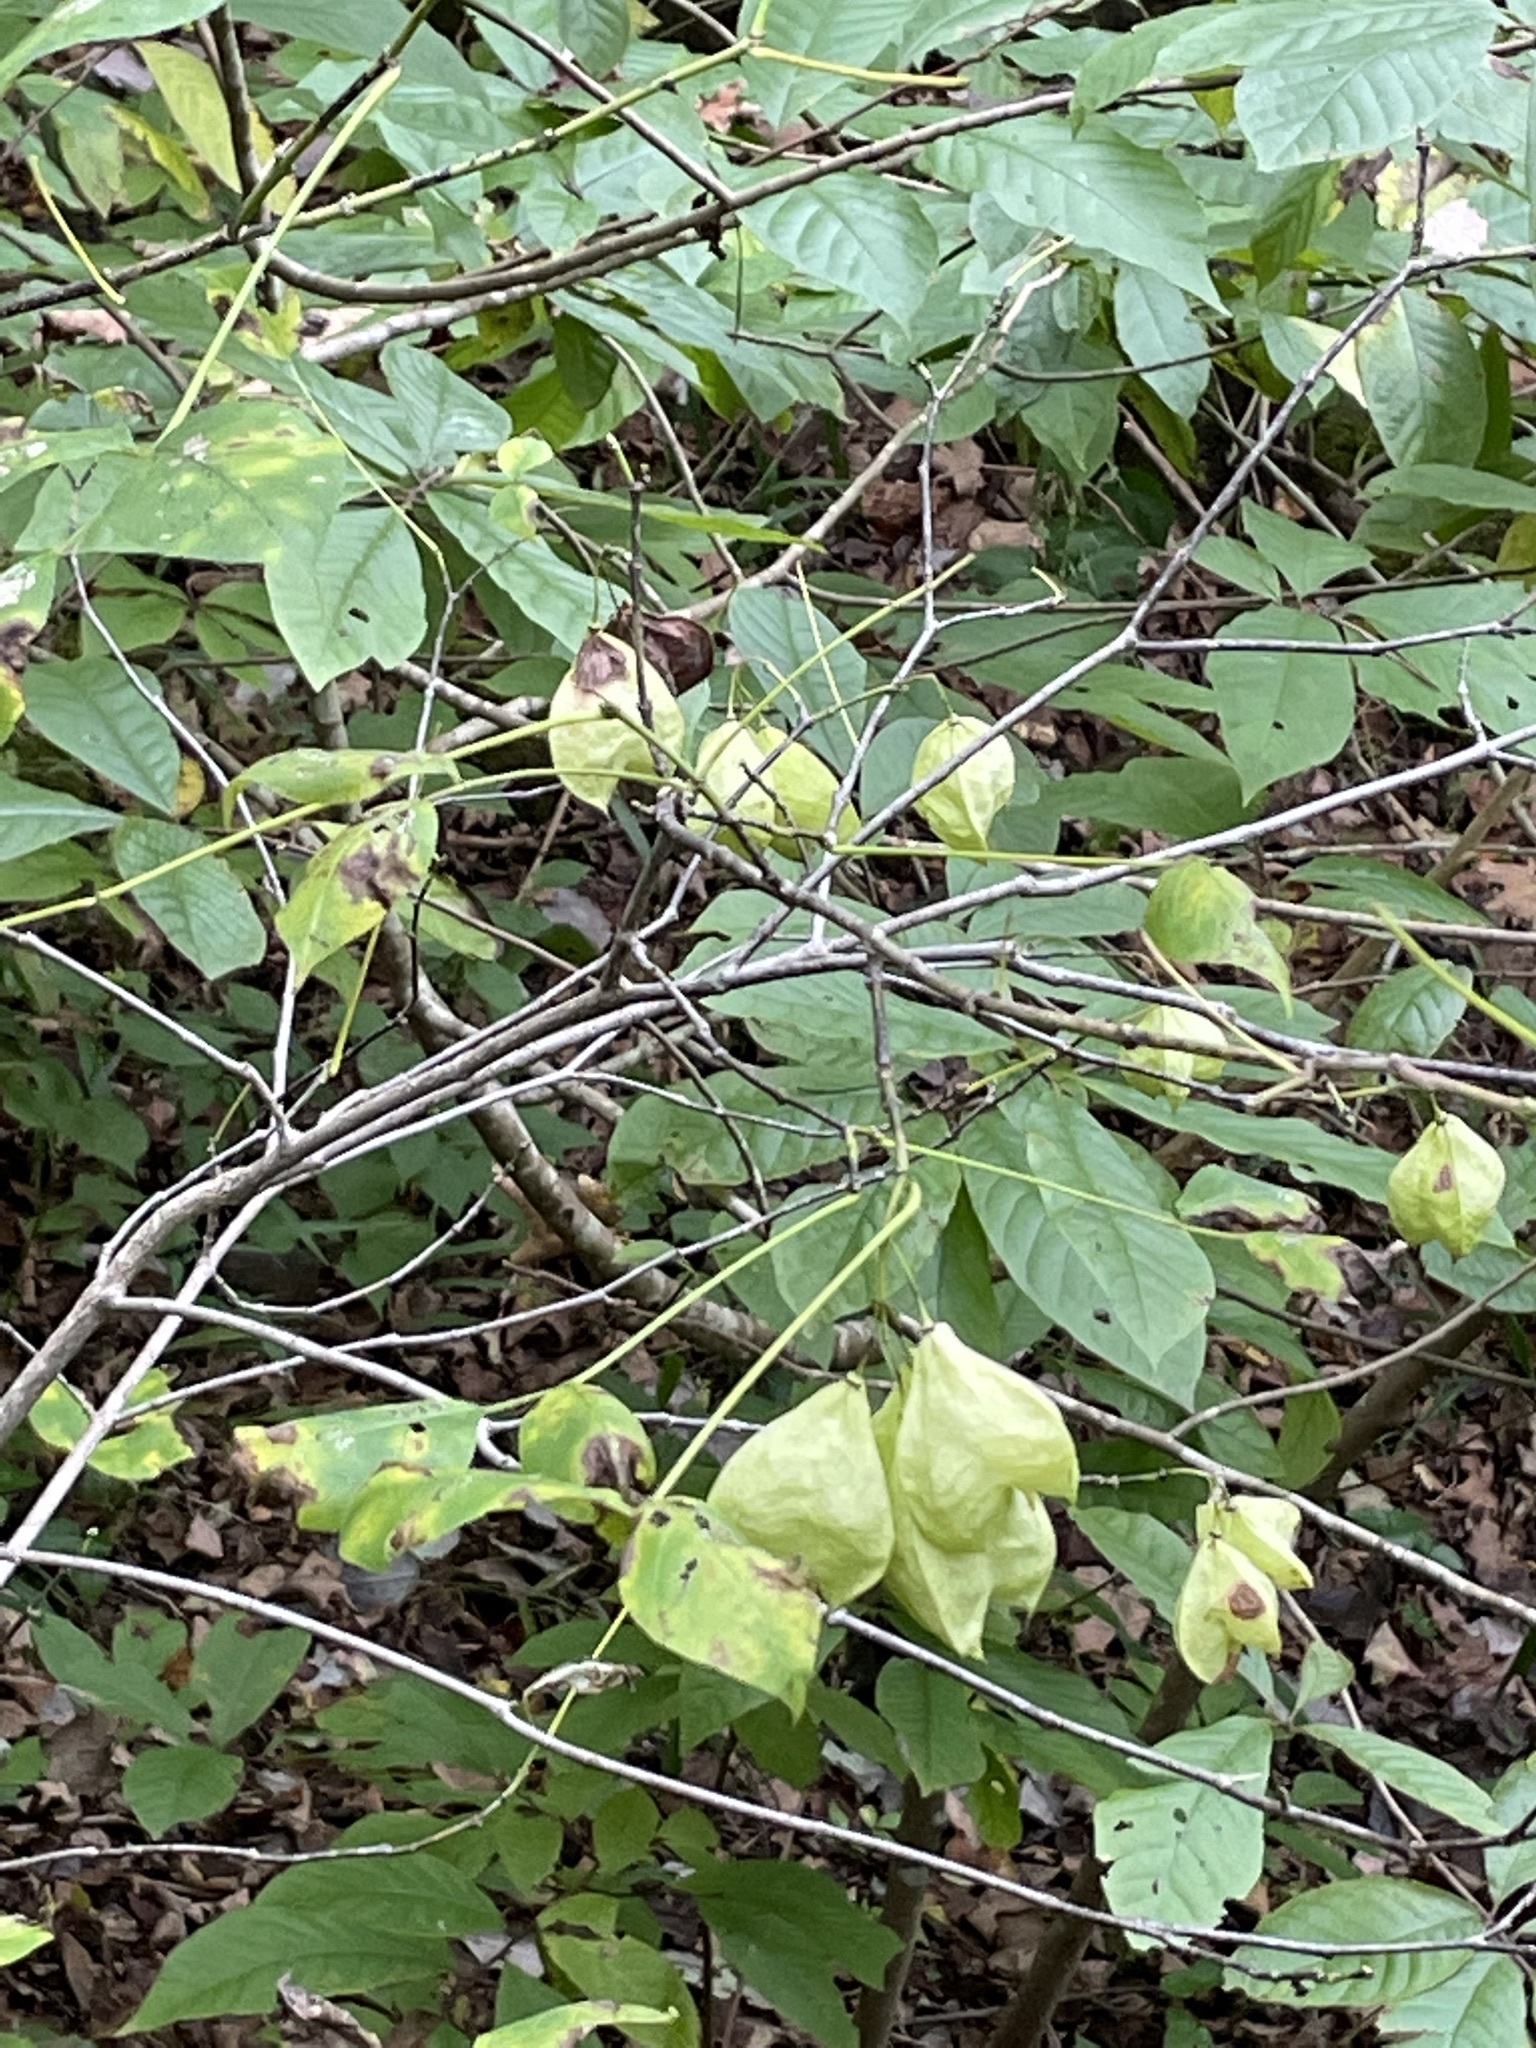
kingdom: Plantae
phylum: Tracheophyta
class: Magnoliopsida
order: Crossosomatales
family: Staphyleaceae
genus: Staphylea
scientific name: Staphylea trifolia
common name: American bladdernut
